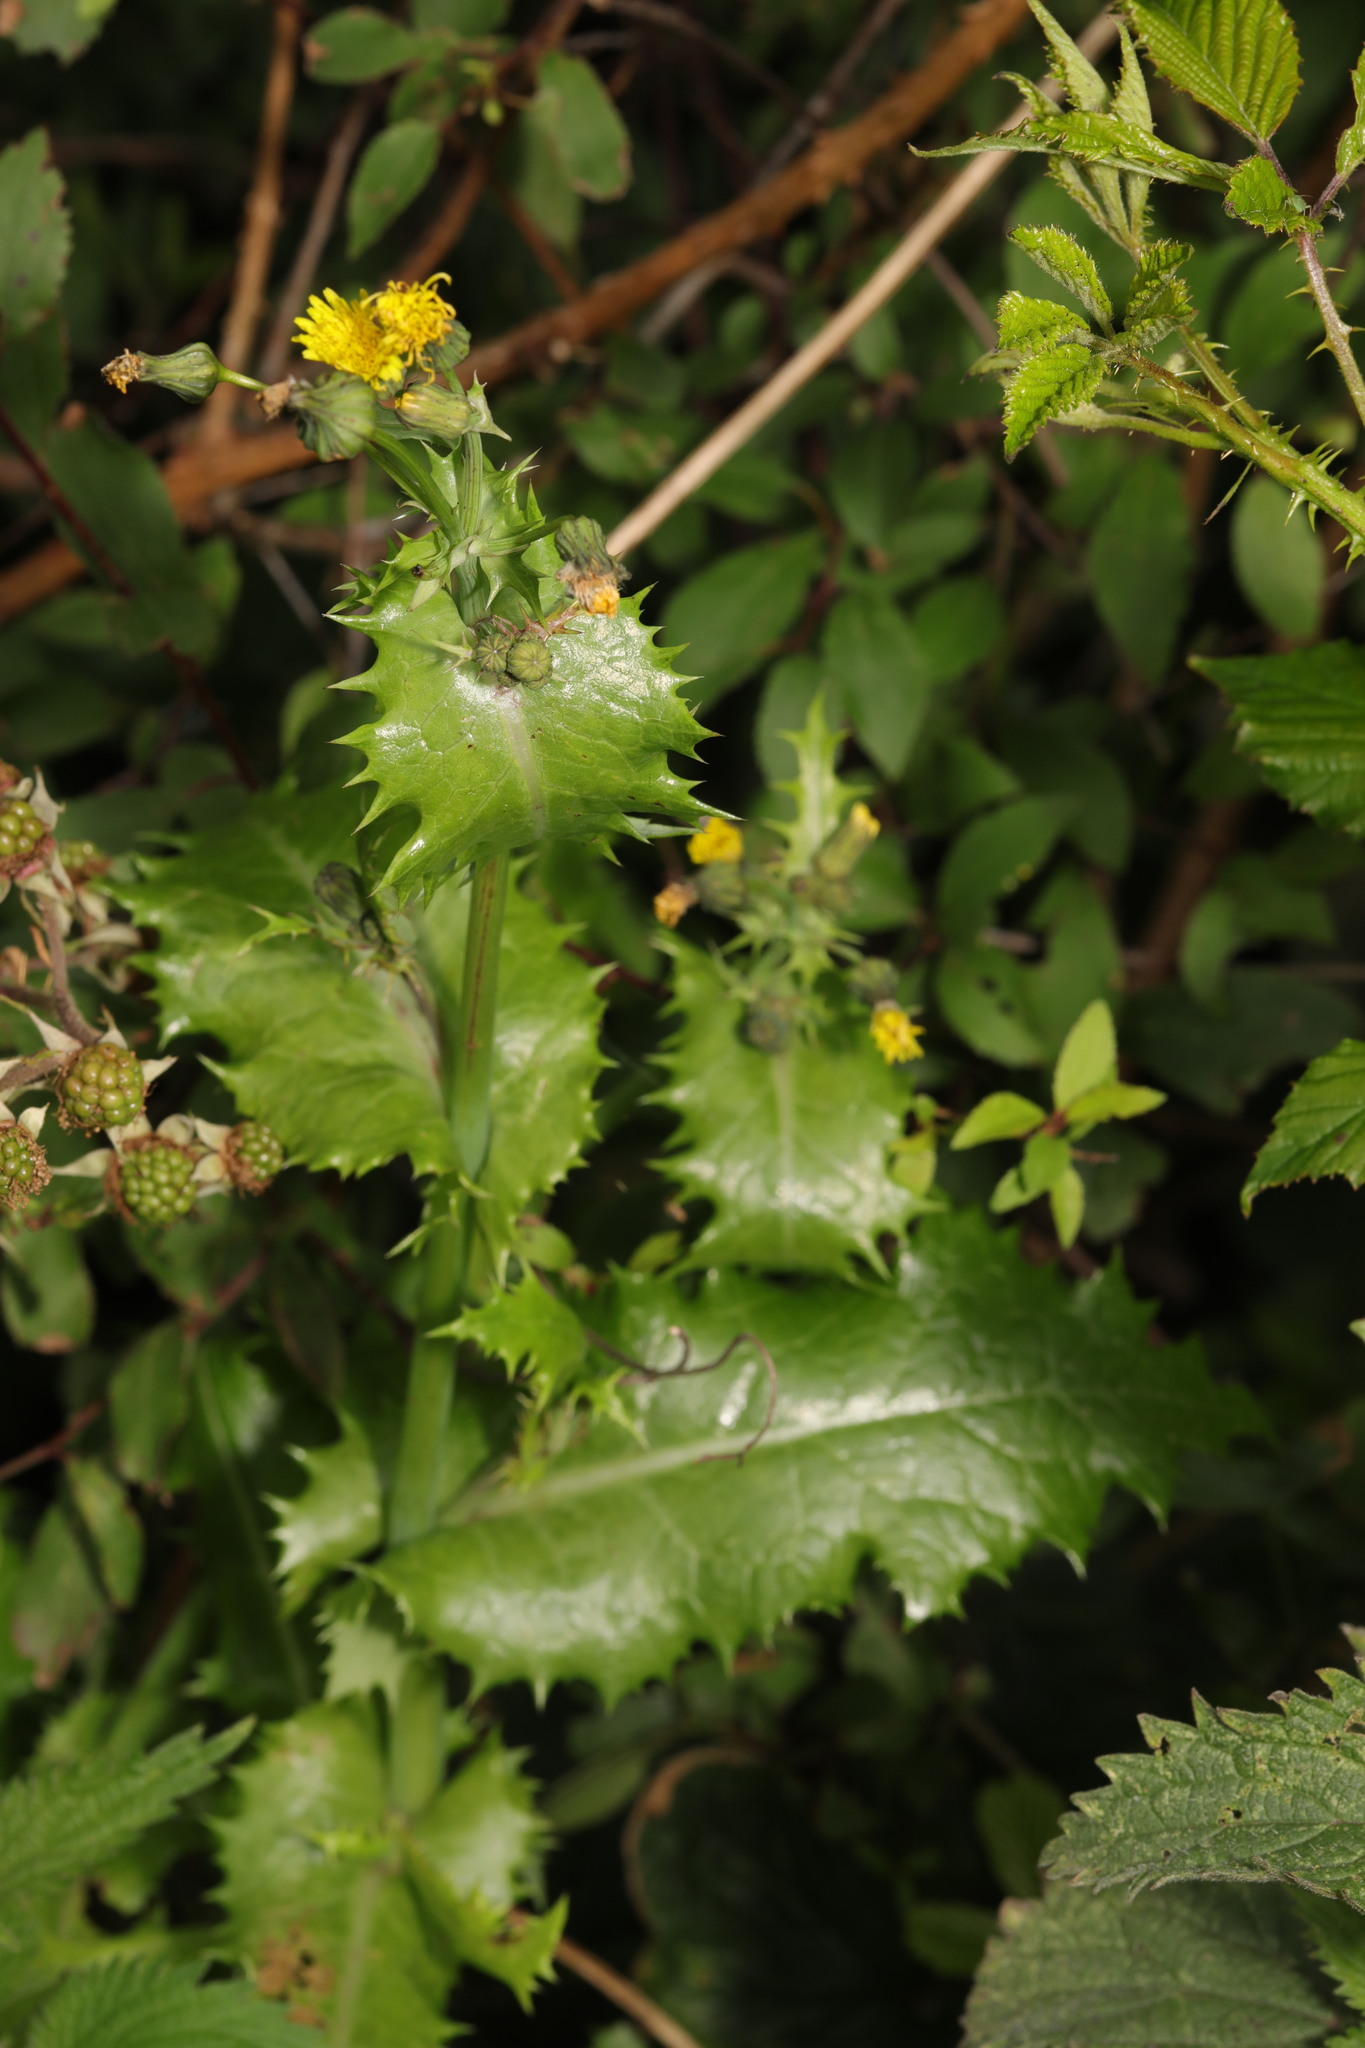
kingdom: Plantae
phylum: Tracheophyta
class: Magnoliopsida
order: Asterales
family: Asteraceae
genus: Sonchus
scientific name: Sonchus asper
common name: Prickly sow-thistle
